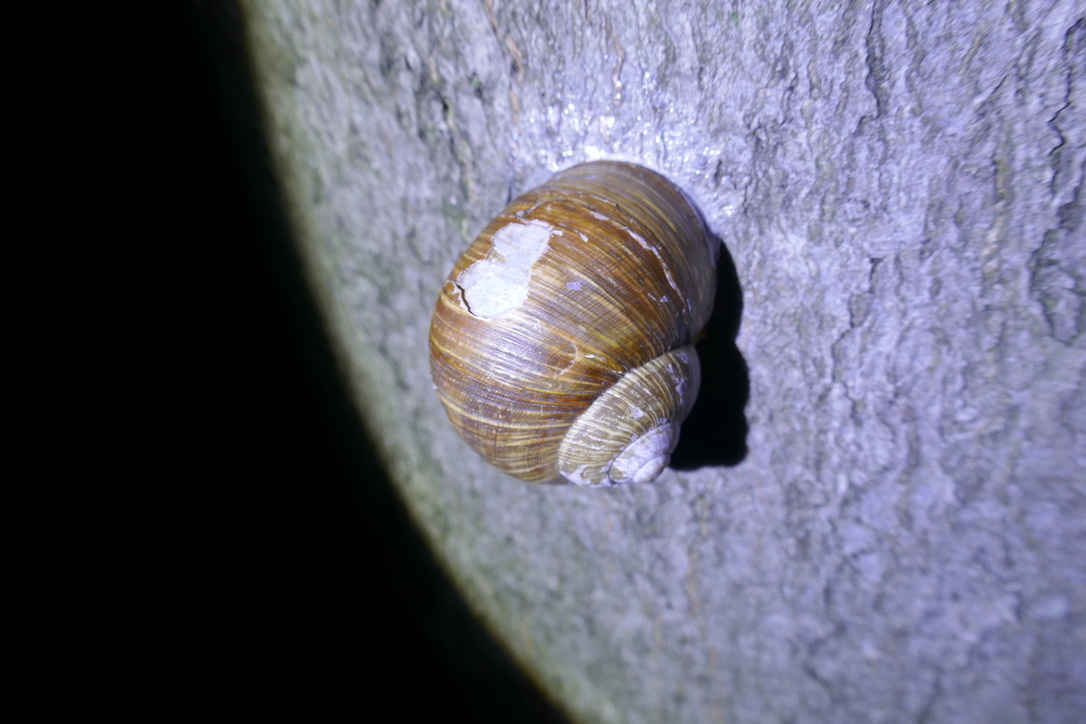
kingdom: Animalia
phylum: Mollusca
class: Gastropoda
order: Stylommatophora
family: Helicidae
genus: Helix
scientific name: Helix pomatia
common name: Roman snail
